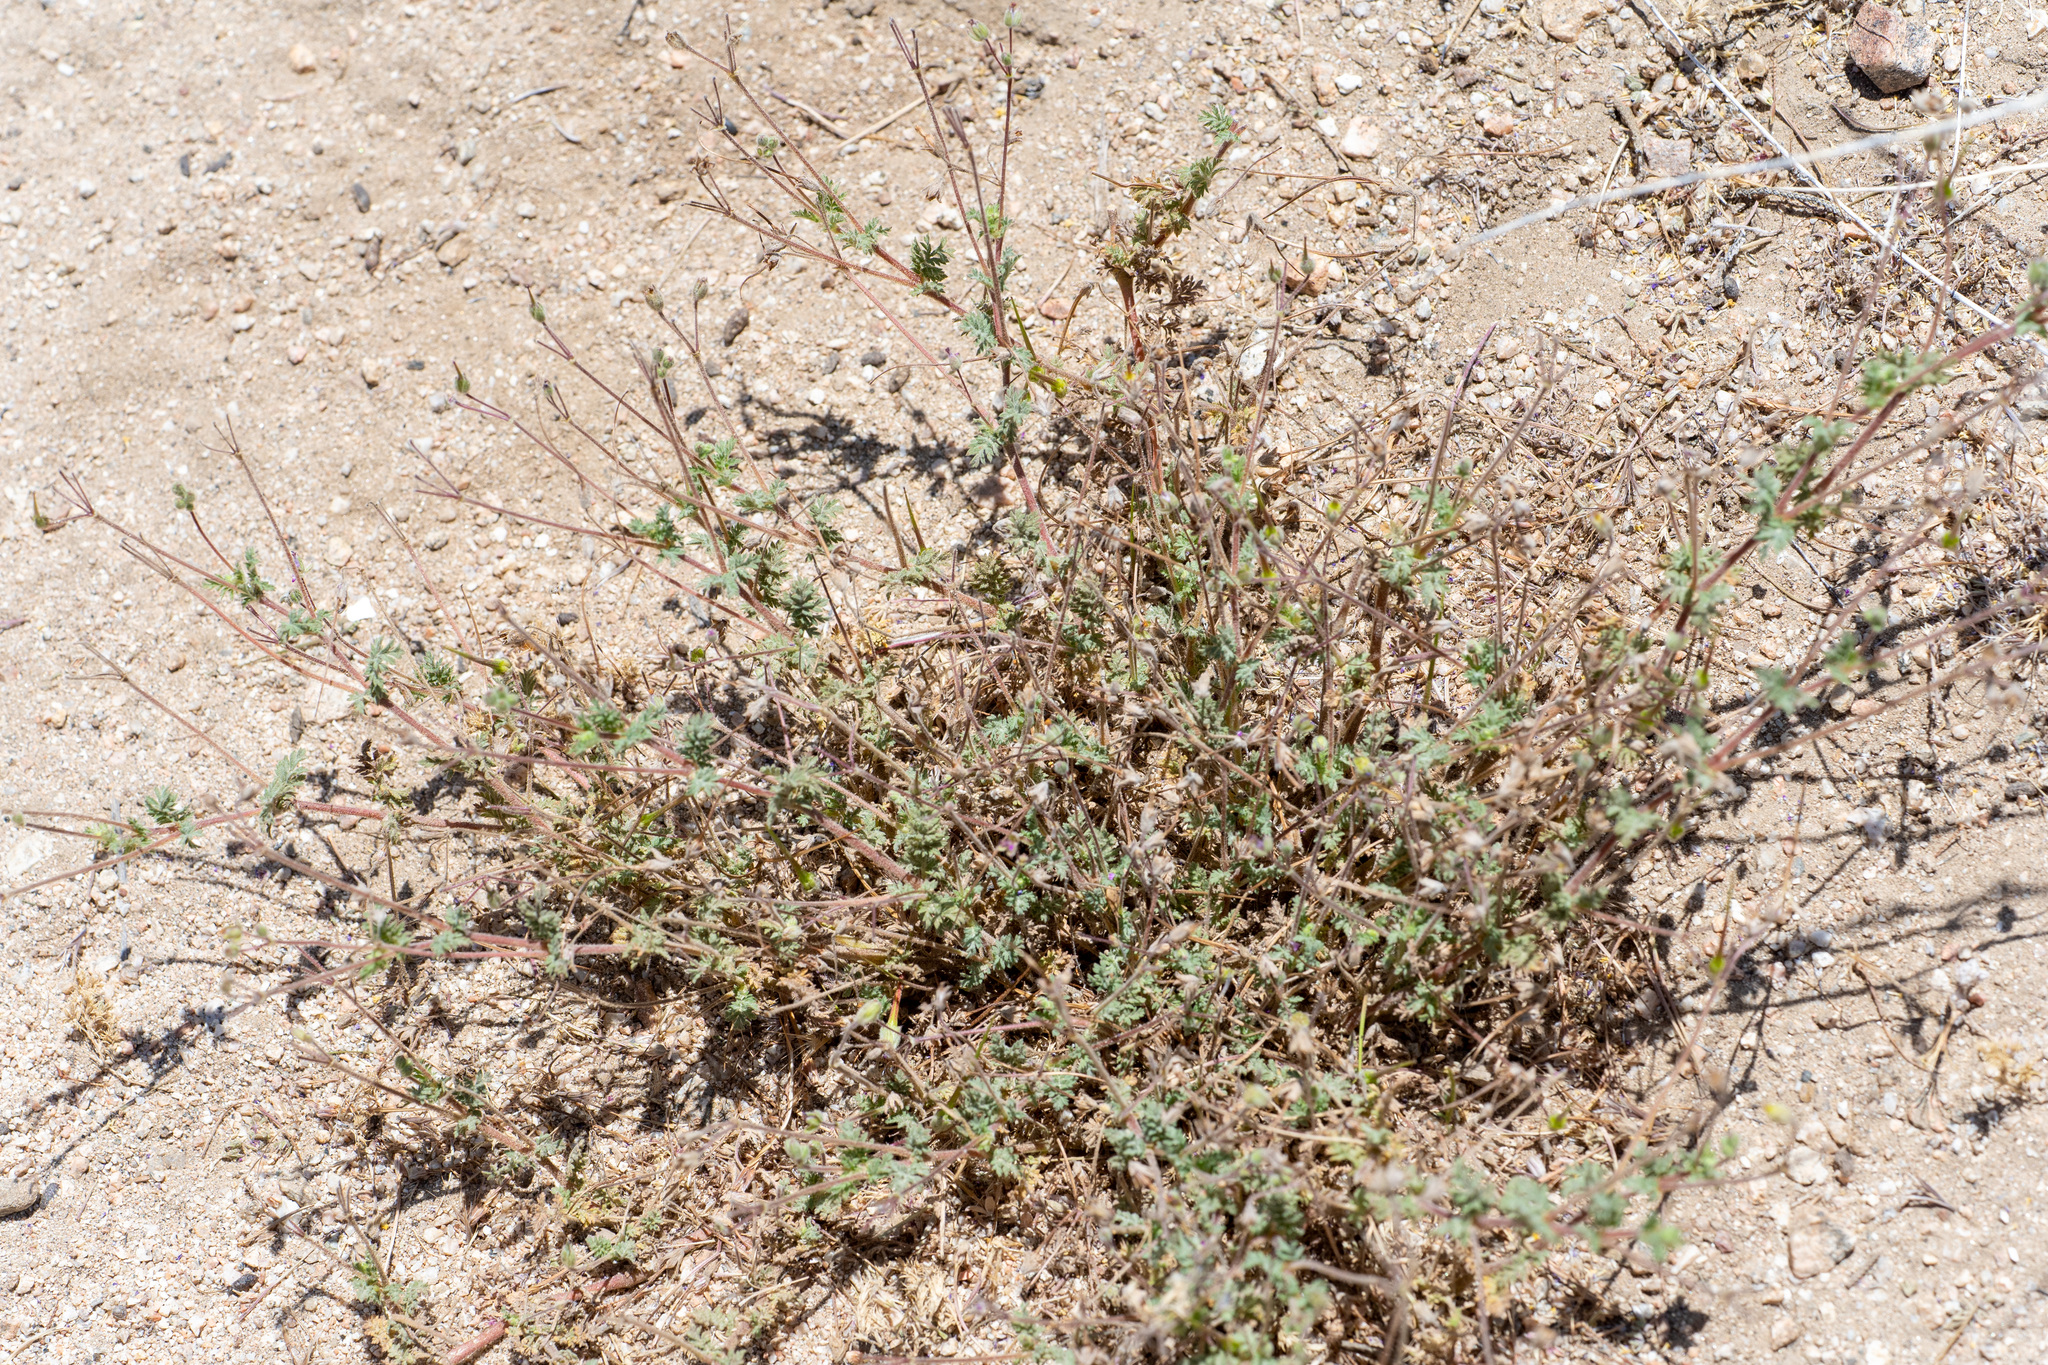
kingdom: Plantae
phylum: Tracheophyta
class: Magnoliopsida
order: Geraniales
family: Geraniaceae
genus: Erodium
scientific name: Erodium cicutarium
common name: Common stork's-bill
